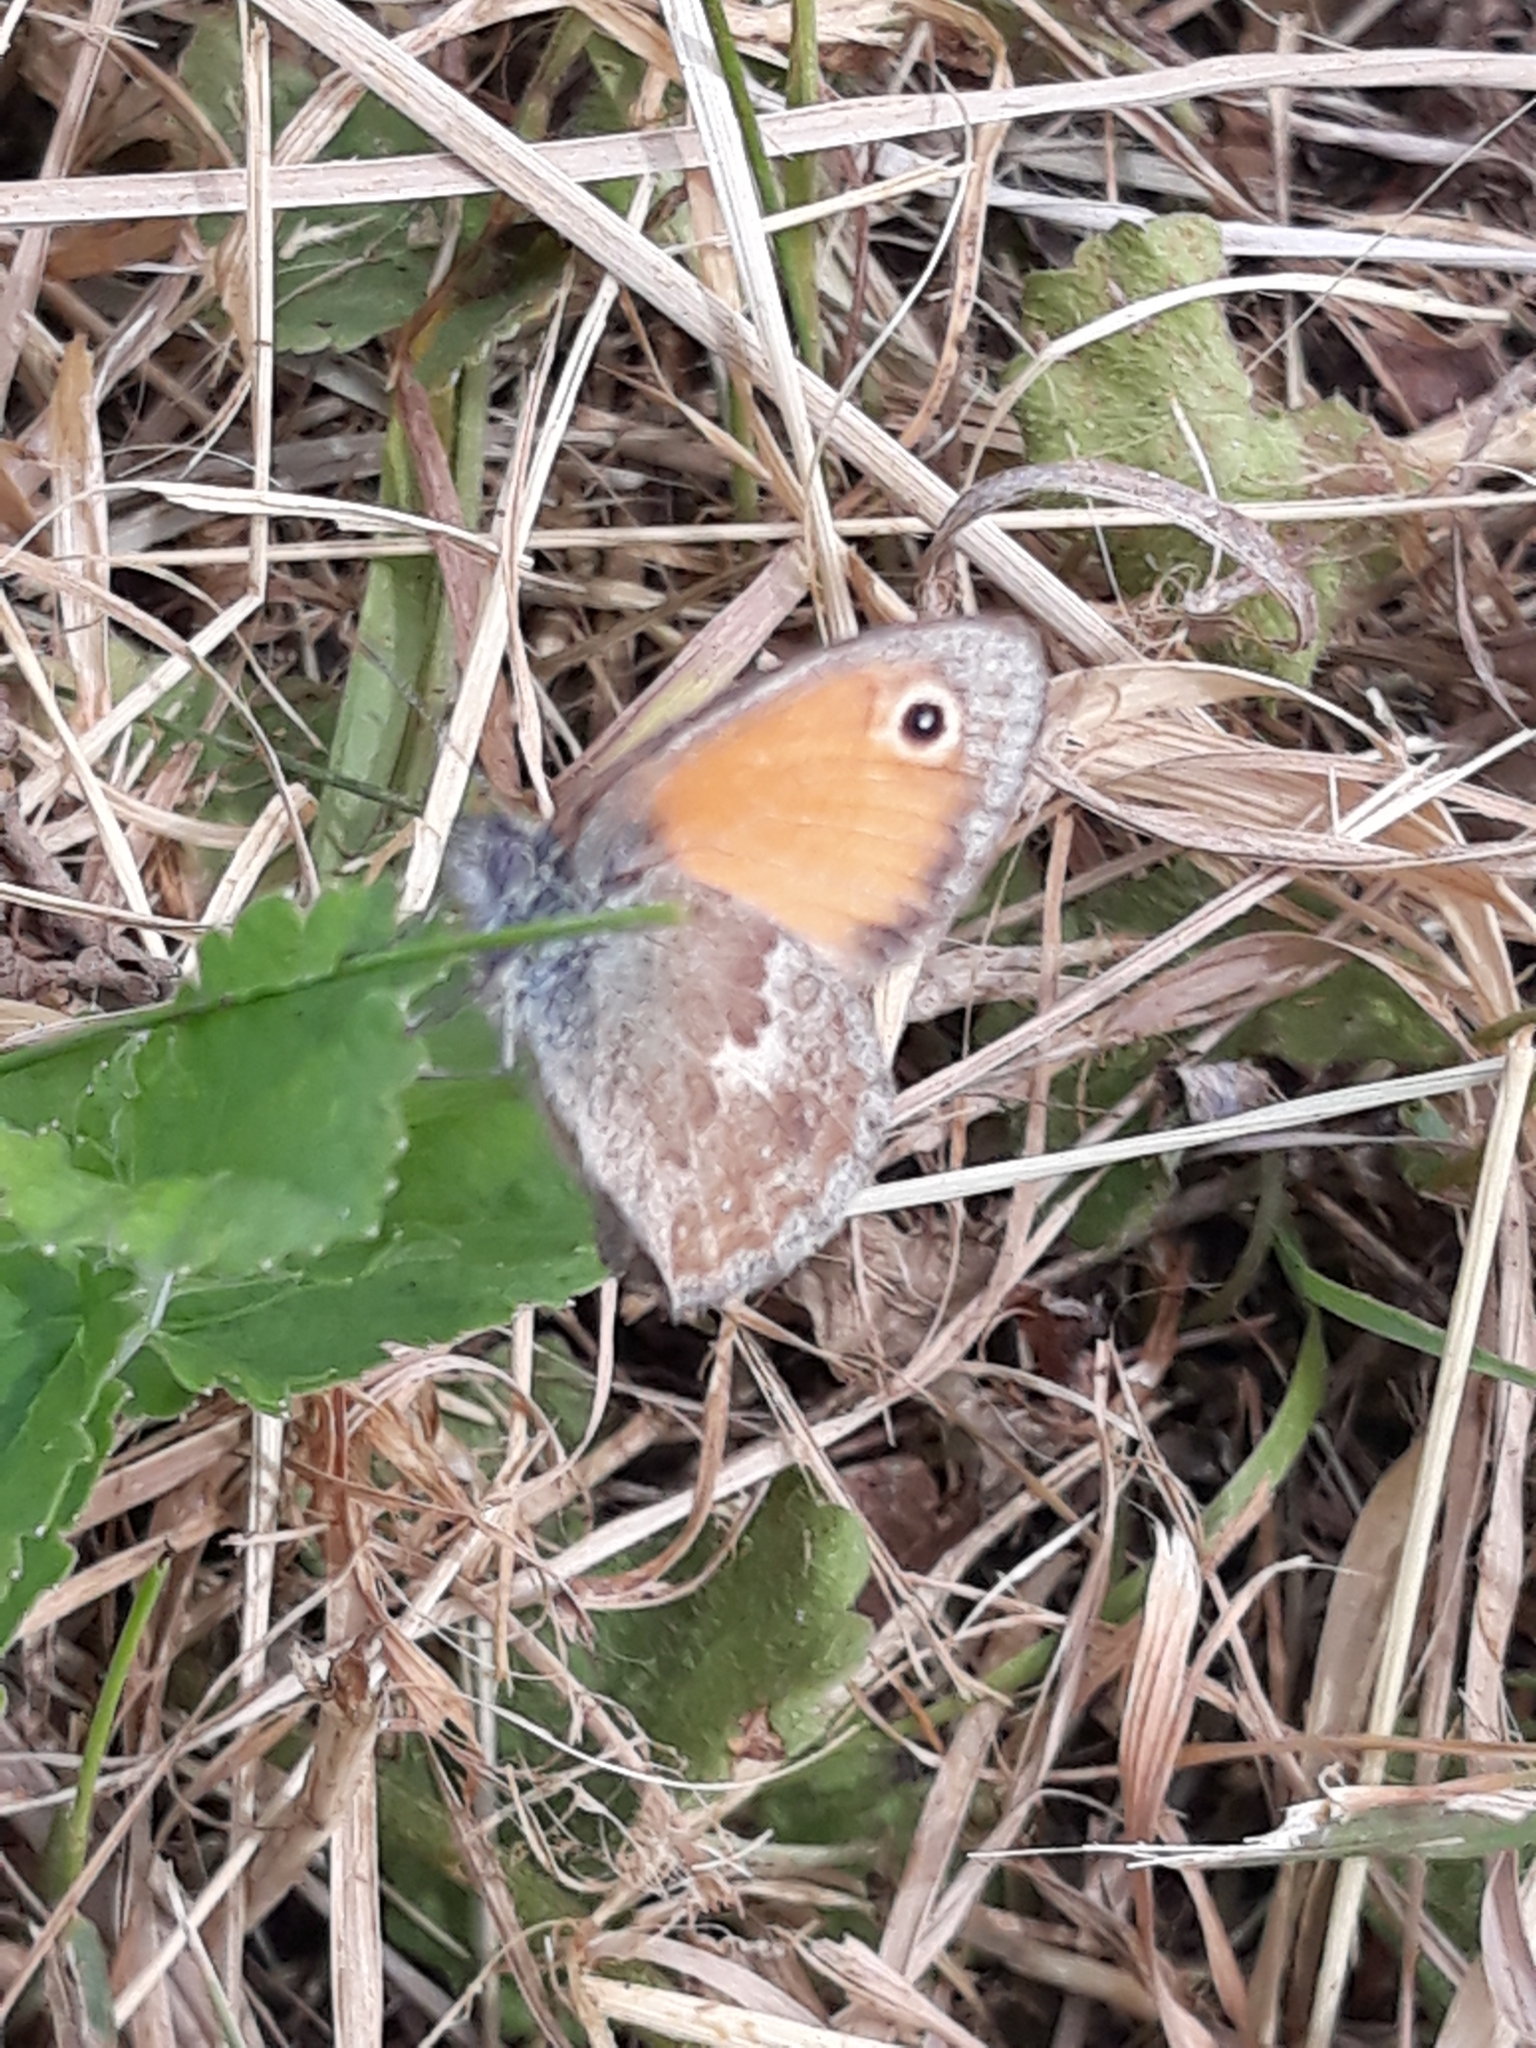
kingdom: Animalia
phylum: Arthropoda
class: Insecta
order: Lepidoptera
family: Nymphalidae
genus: Coenonympha
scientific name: Coenonympha pamphilus
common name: Small heath
